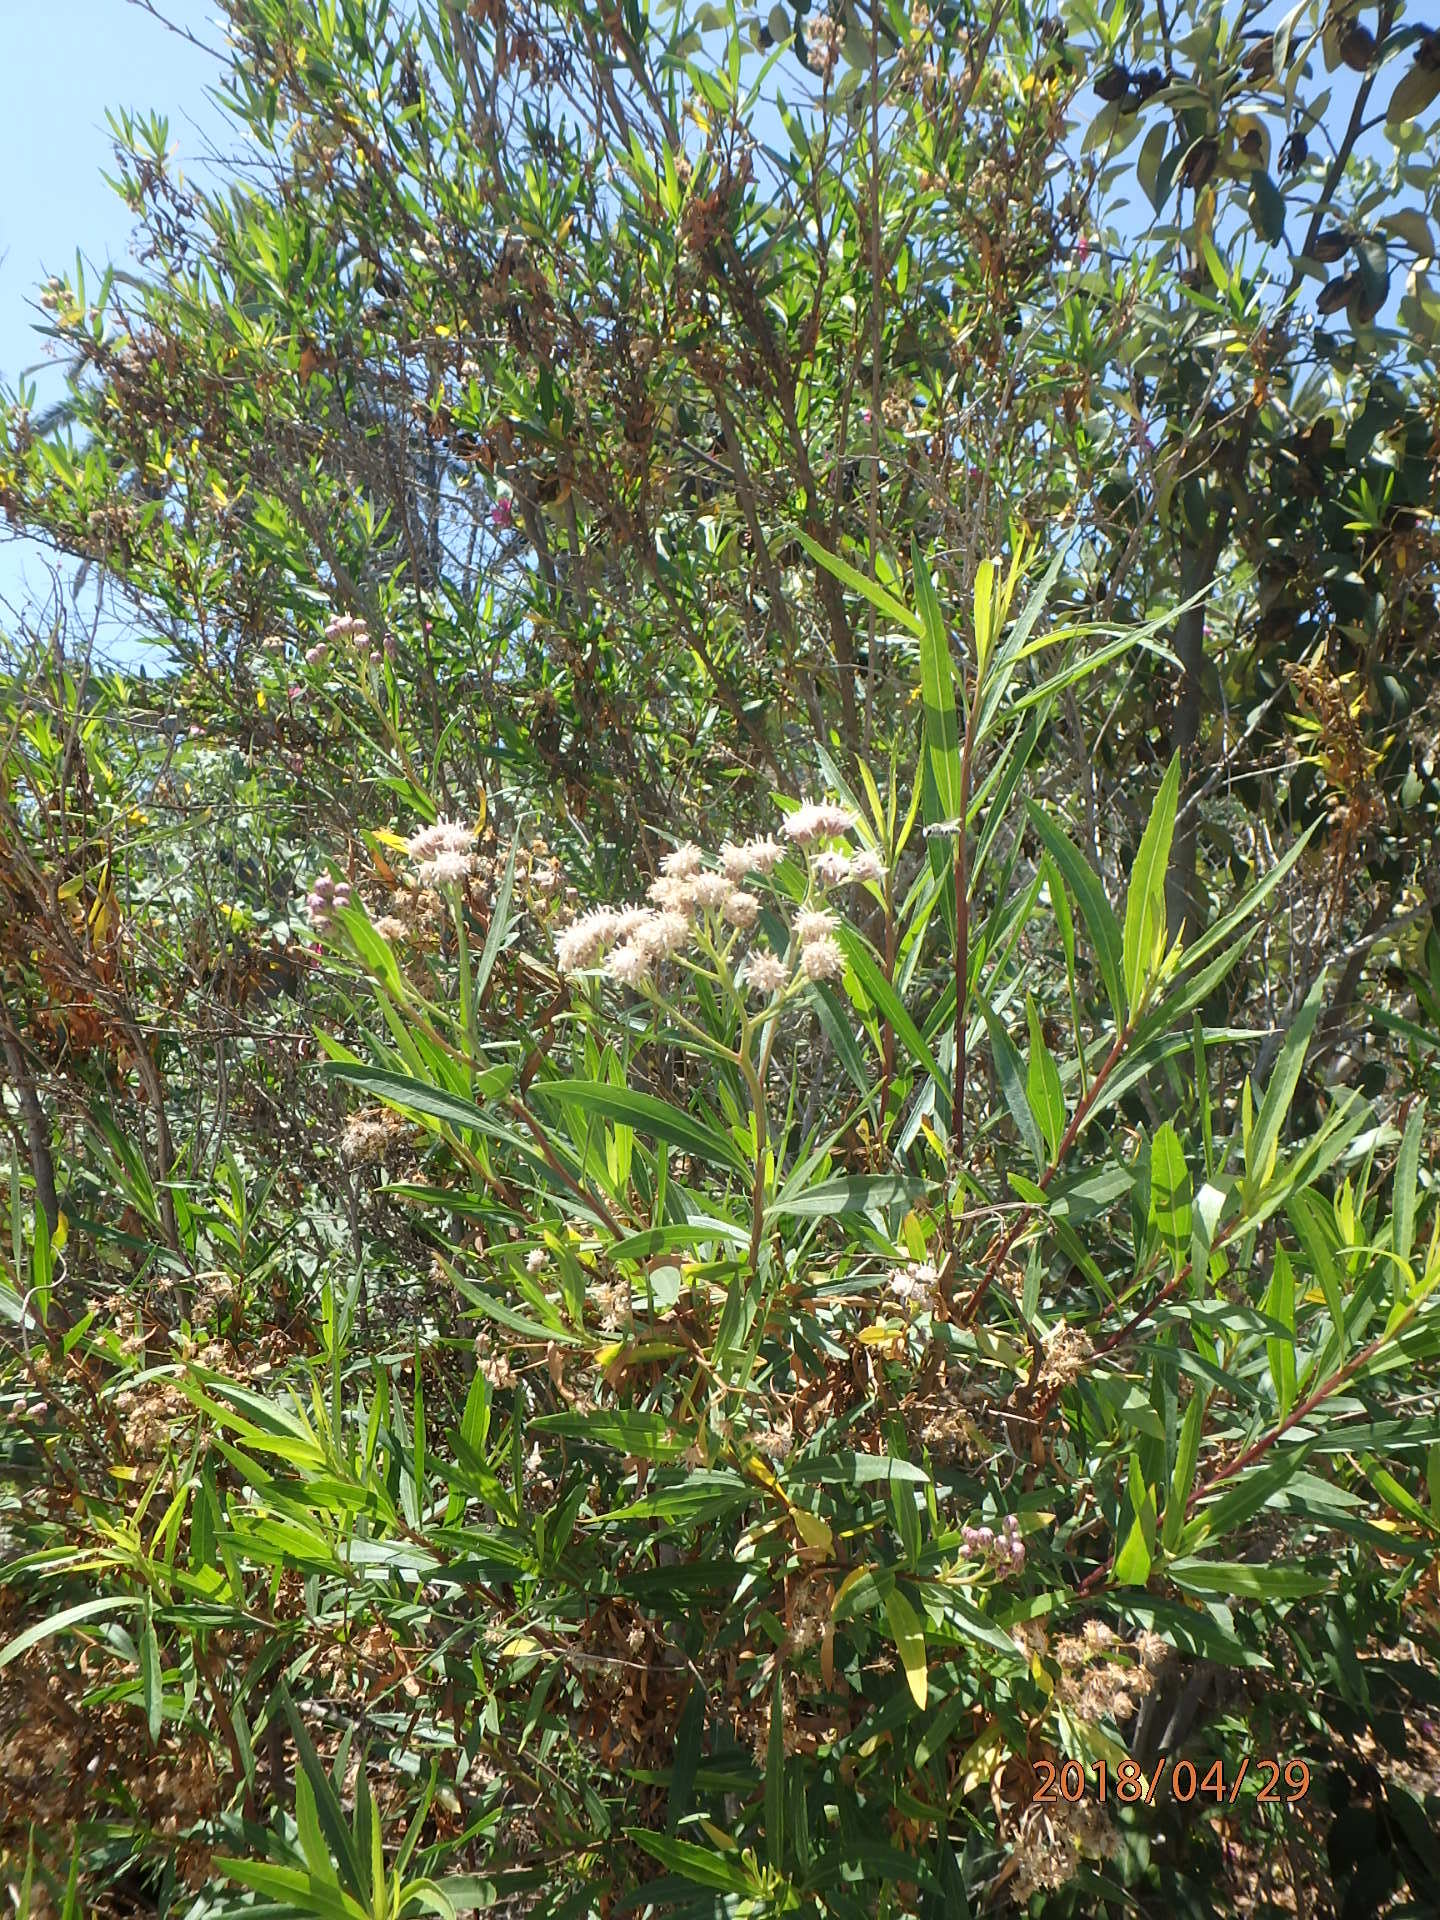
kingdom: Plantae
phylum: Tracheophyta
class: Magnoliopsida
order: Asterales
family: Asteraceae
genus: Baccharis
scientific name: Baccharis salicifolia
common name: Sticky baccharis
